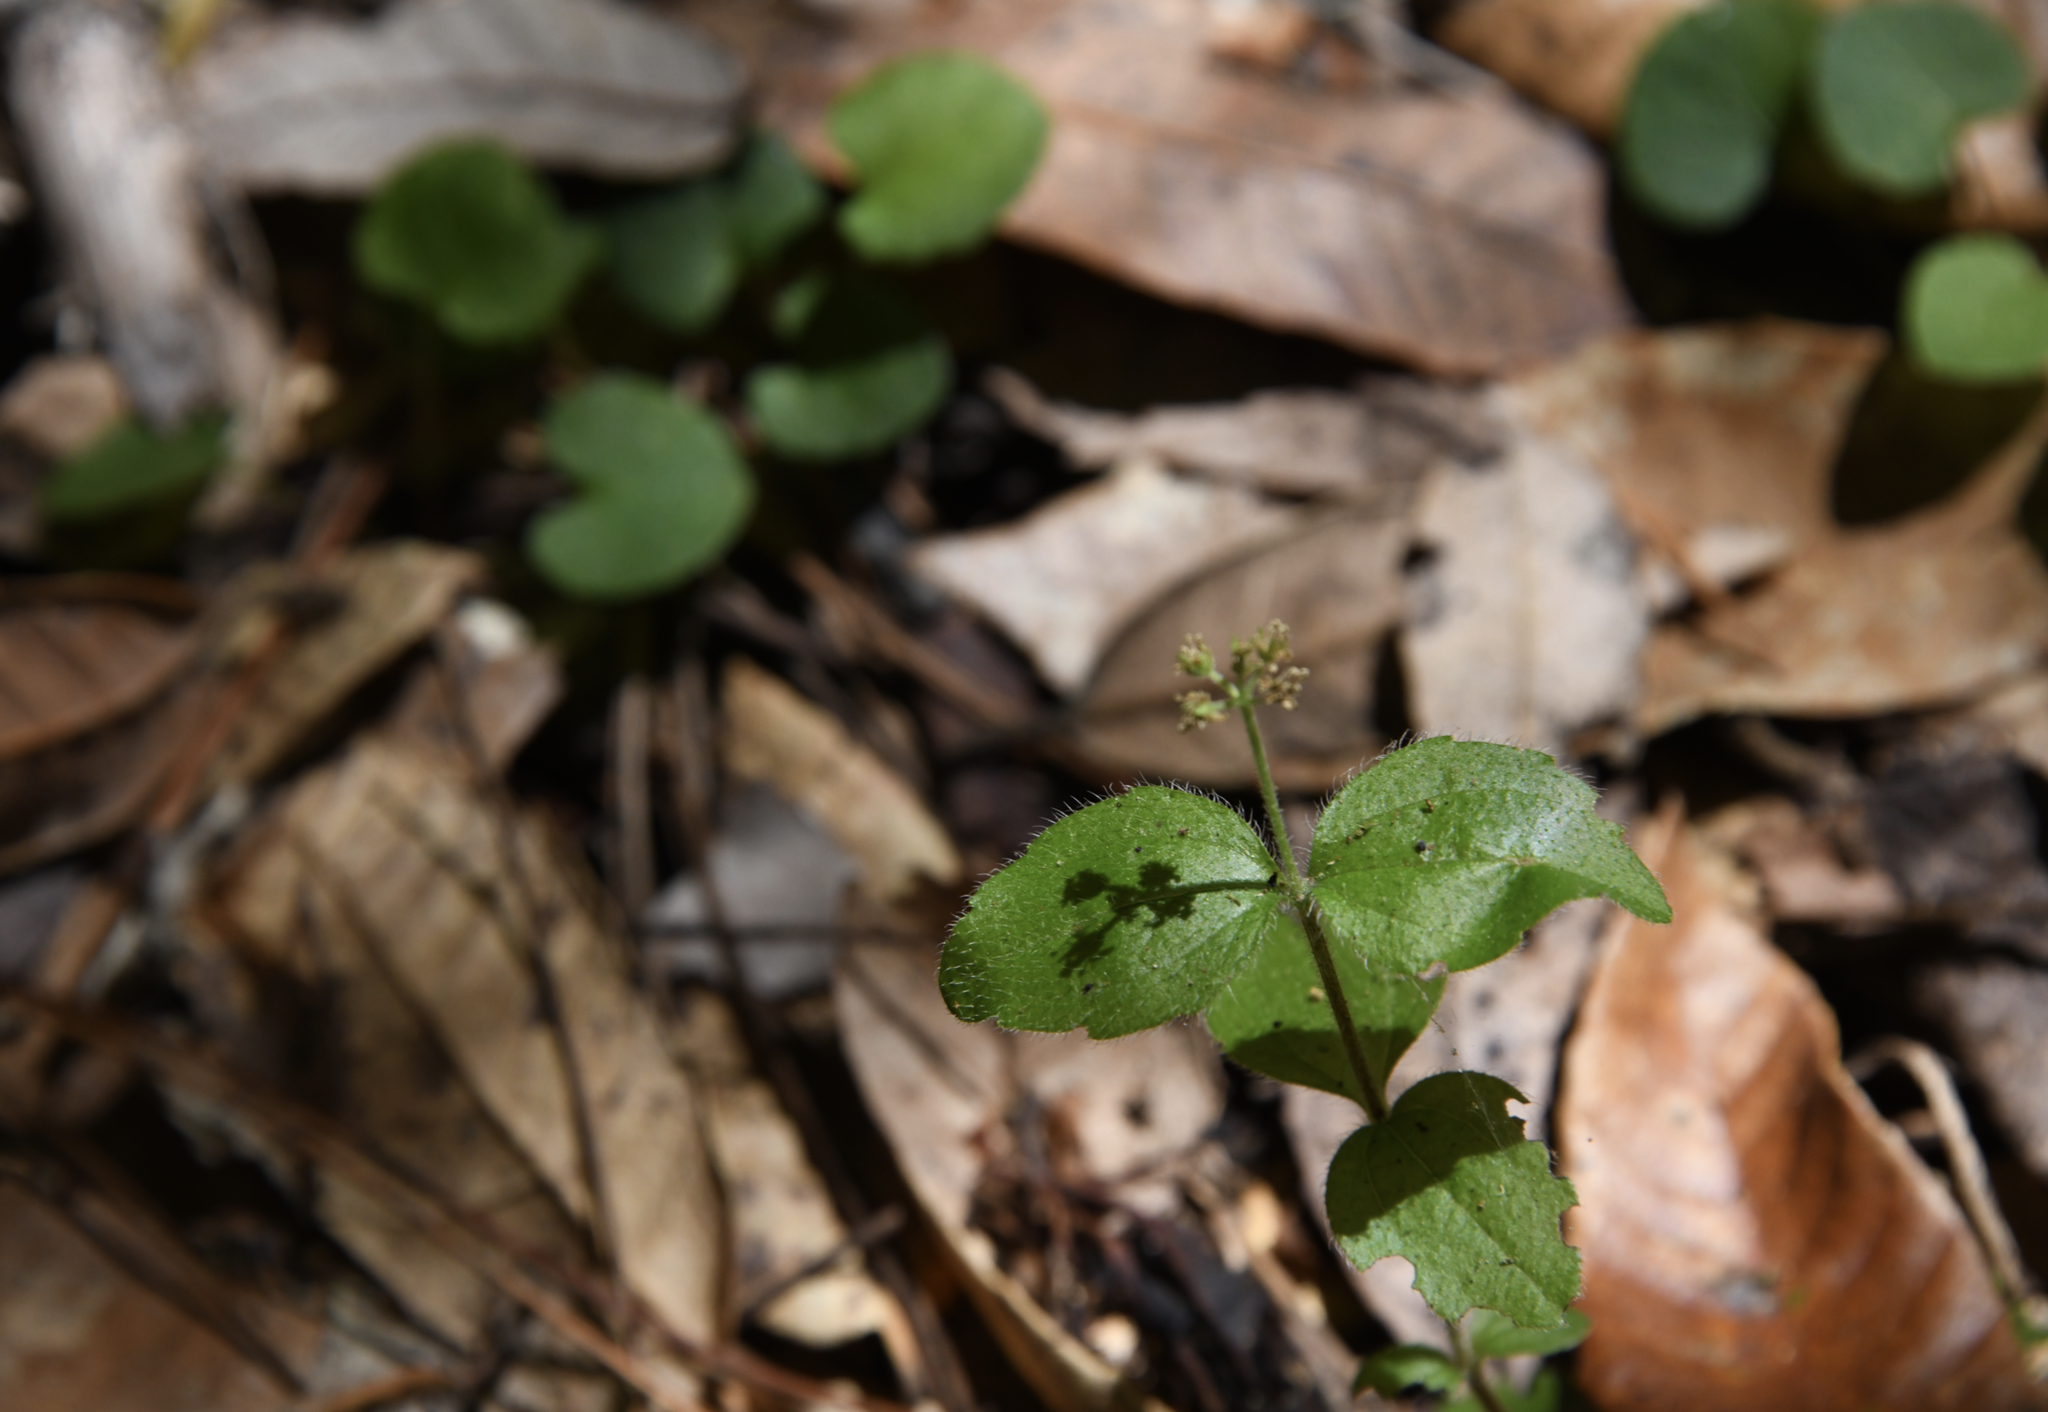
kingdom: Plantae
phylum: Tracheophyta
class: Magnoliopsida
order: Cornales
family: Hydrangeaceae
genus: Whipplea
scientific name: Whipplea modesta
